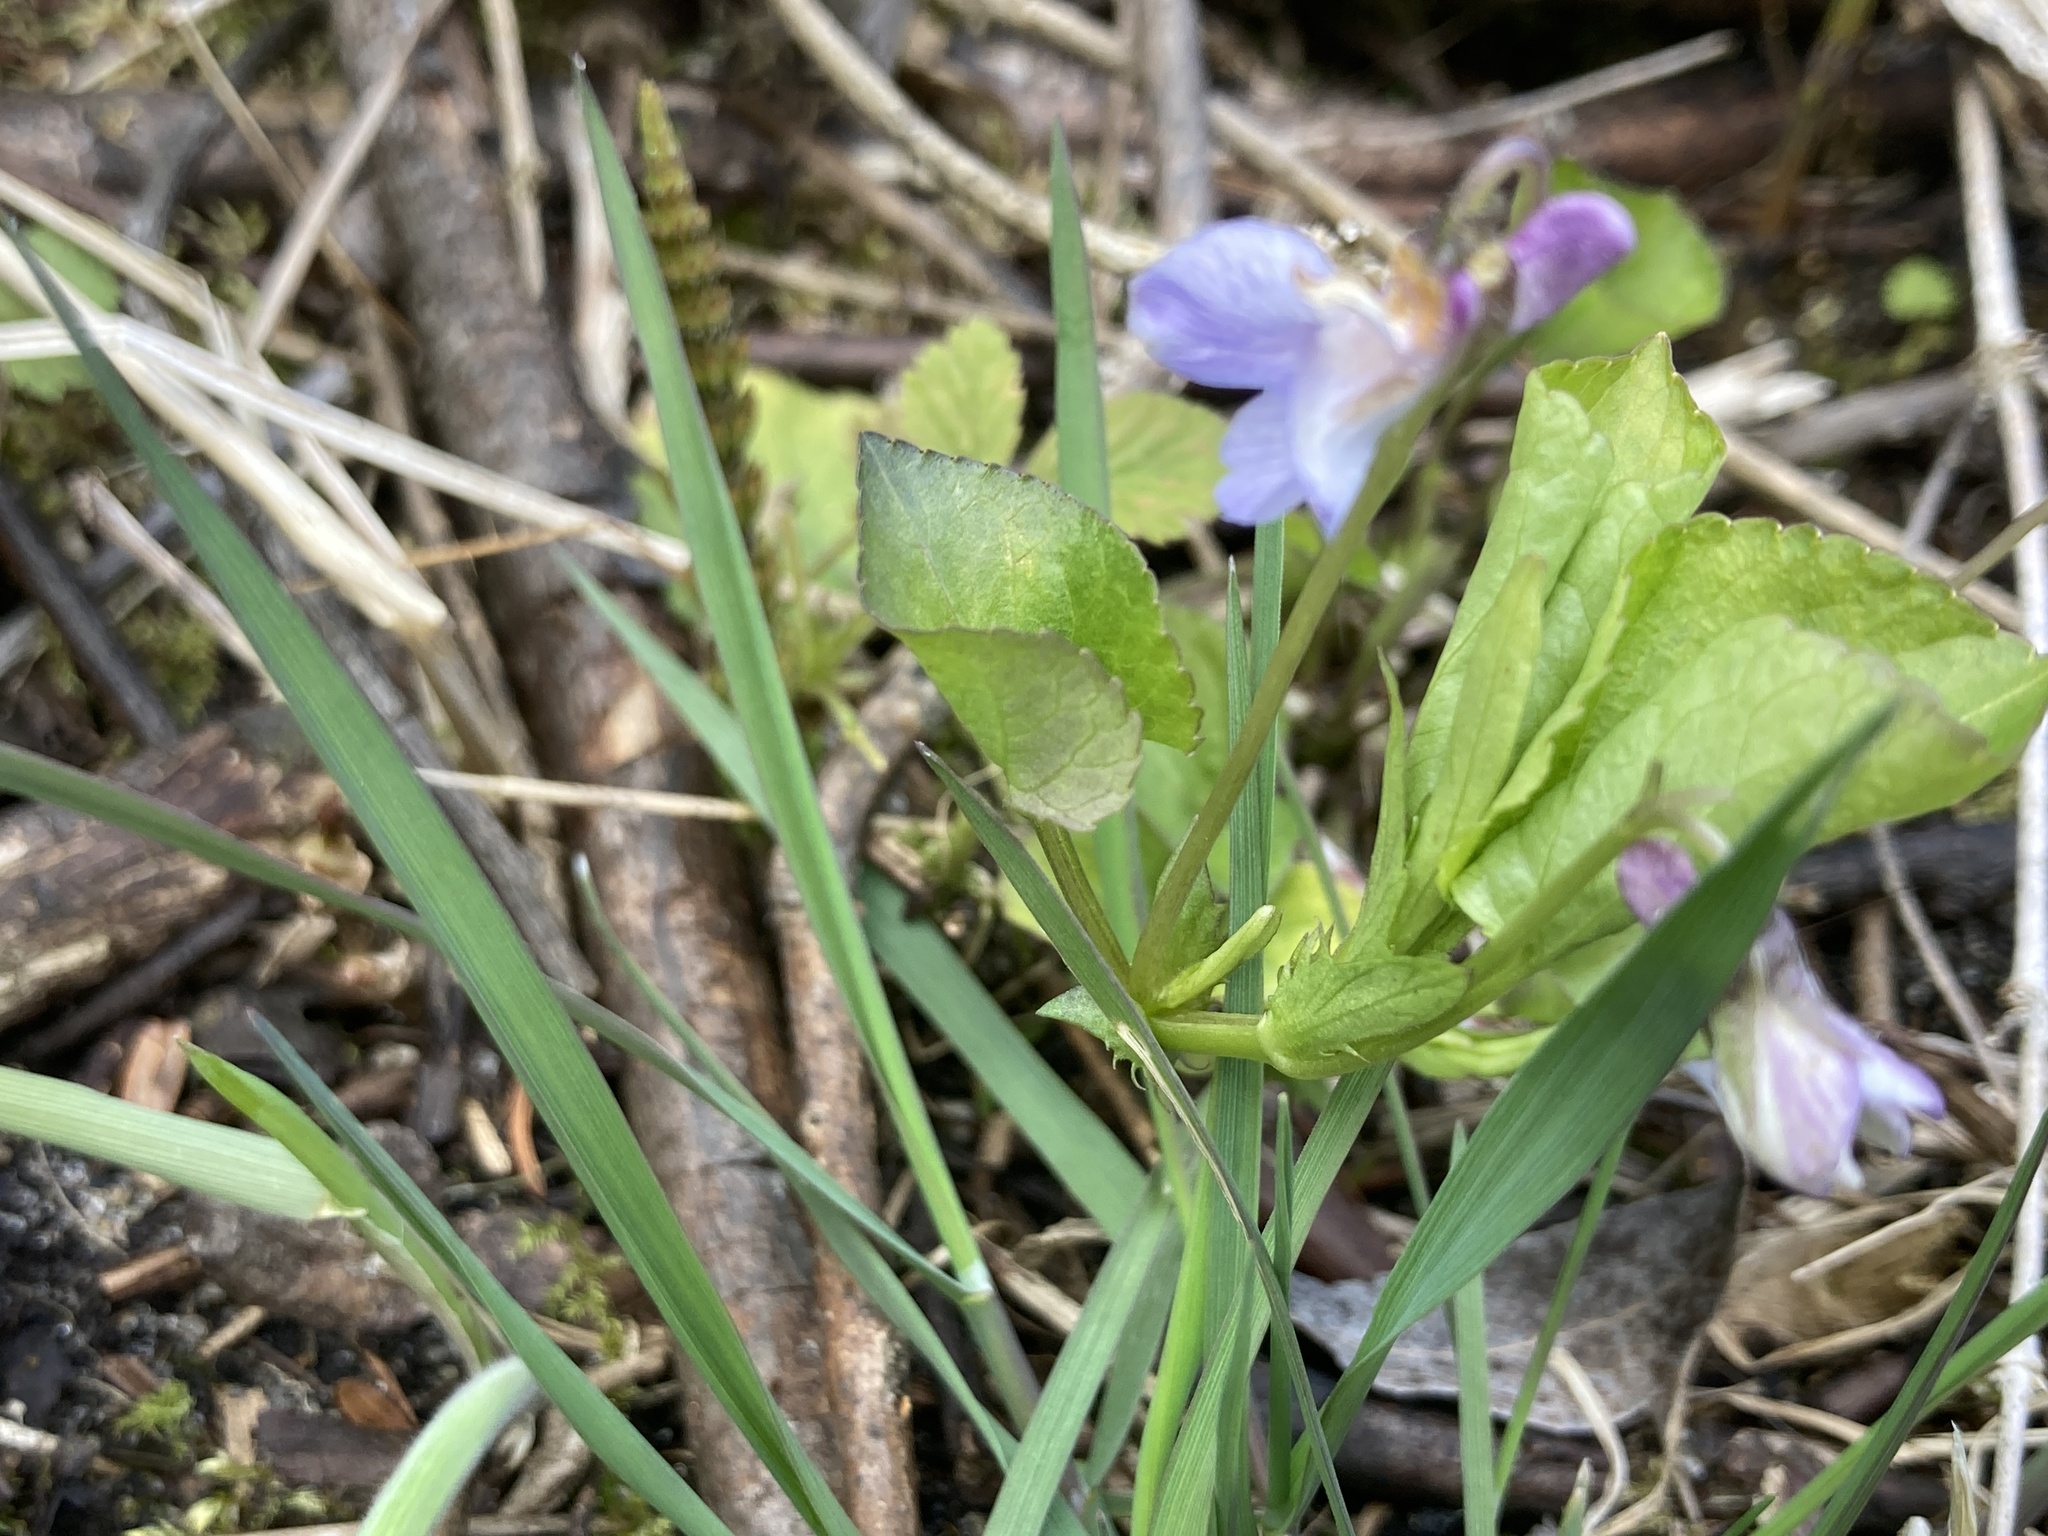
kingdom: Plantae
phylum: Tracheophyta
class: Magnoliopsida
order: Malpighiales
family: Violaceae
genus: Viola
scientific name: Viola labradorica
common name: Labrador violet
